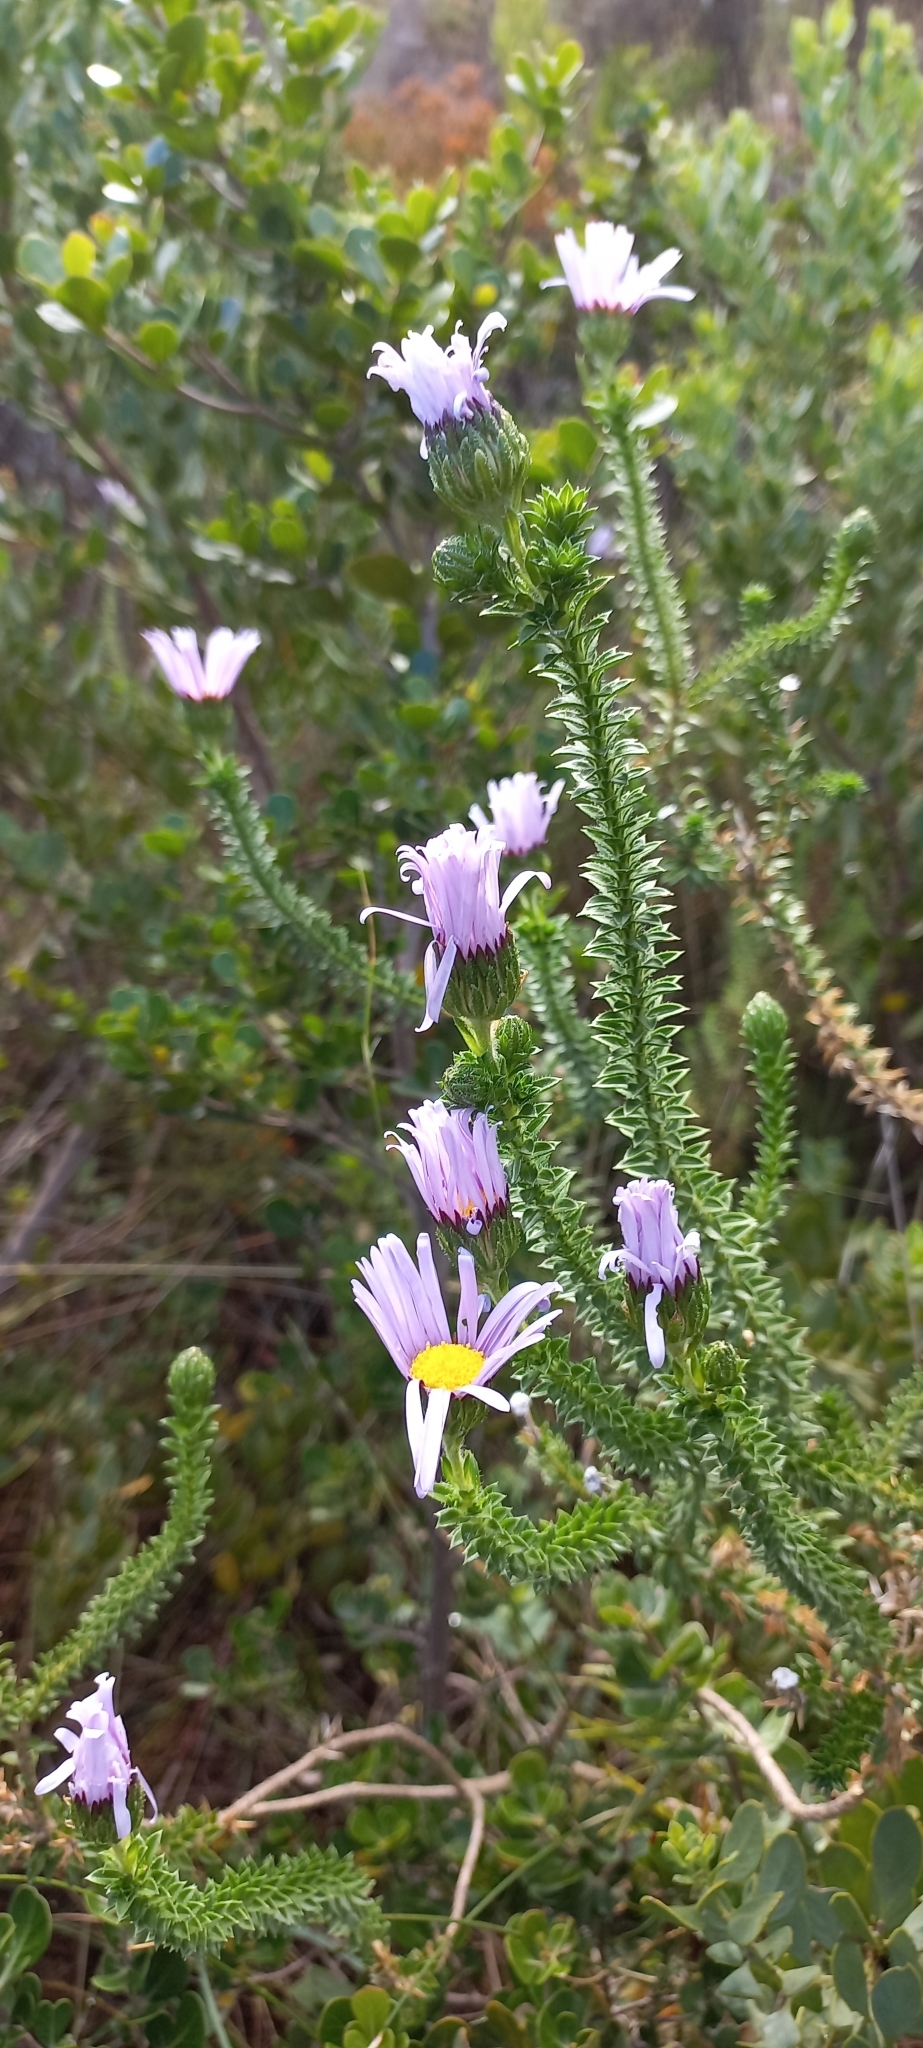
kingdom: Plantae
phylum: Tracheophyta
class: Magnoliopsida
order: Asterales
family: Asteraceae
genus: Felicia
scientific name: Felicia echinata
